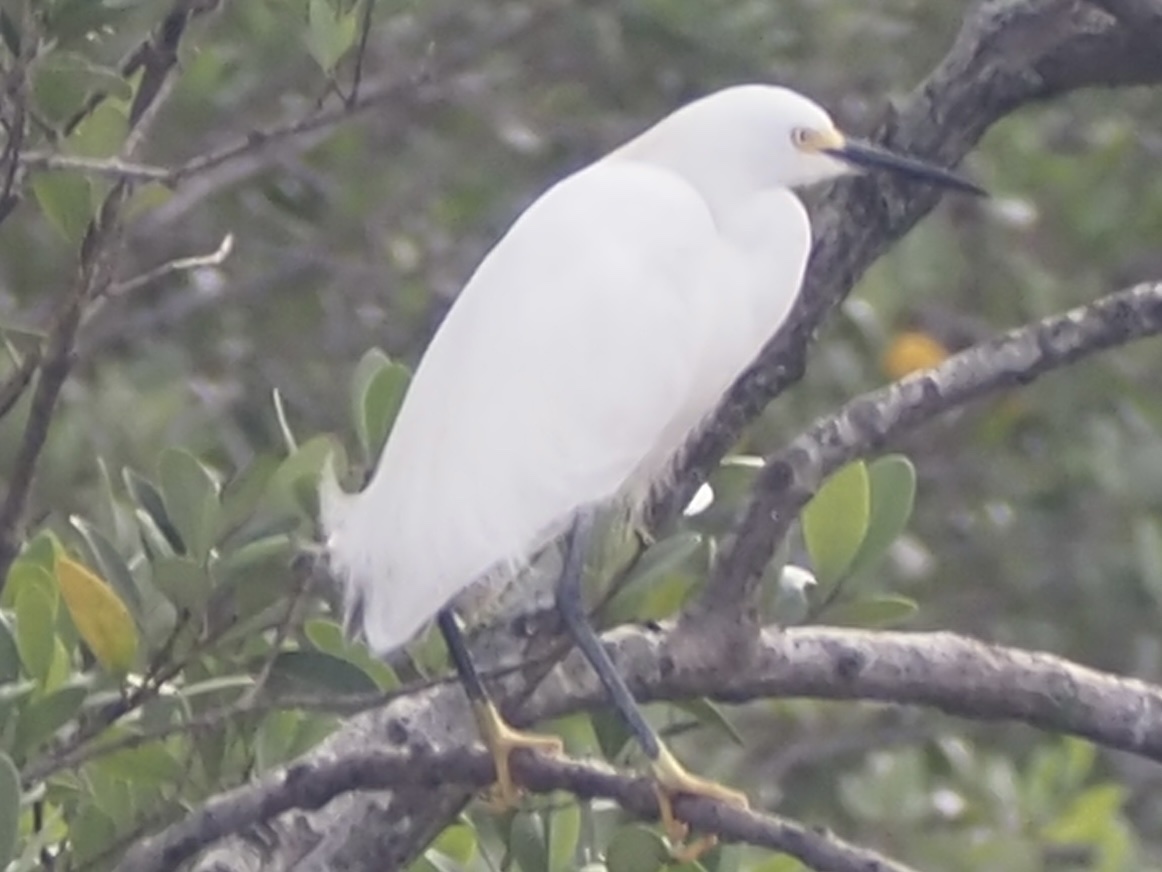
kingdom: Animalia
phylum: Chordata
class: Aves
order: Pelecaniformes
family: Ardeidae
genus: Egretta
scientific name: Egretta thula
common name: Snowy egret
